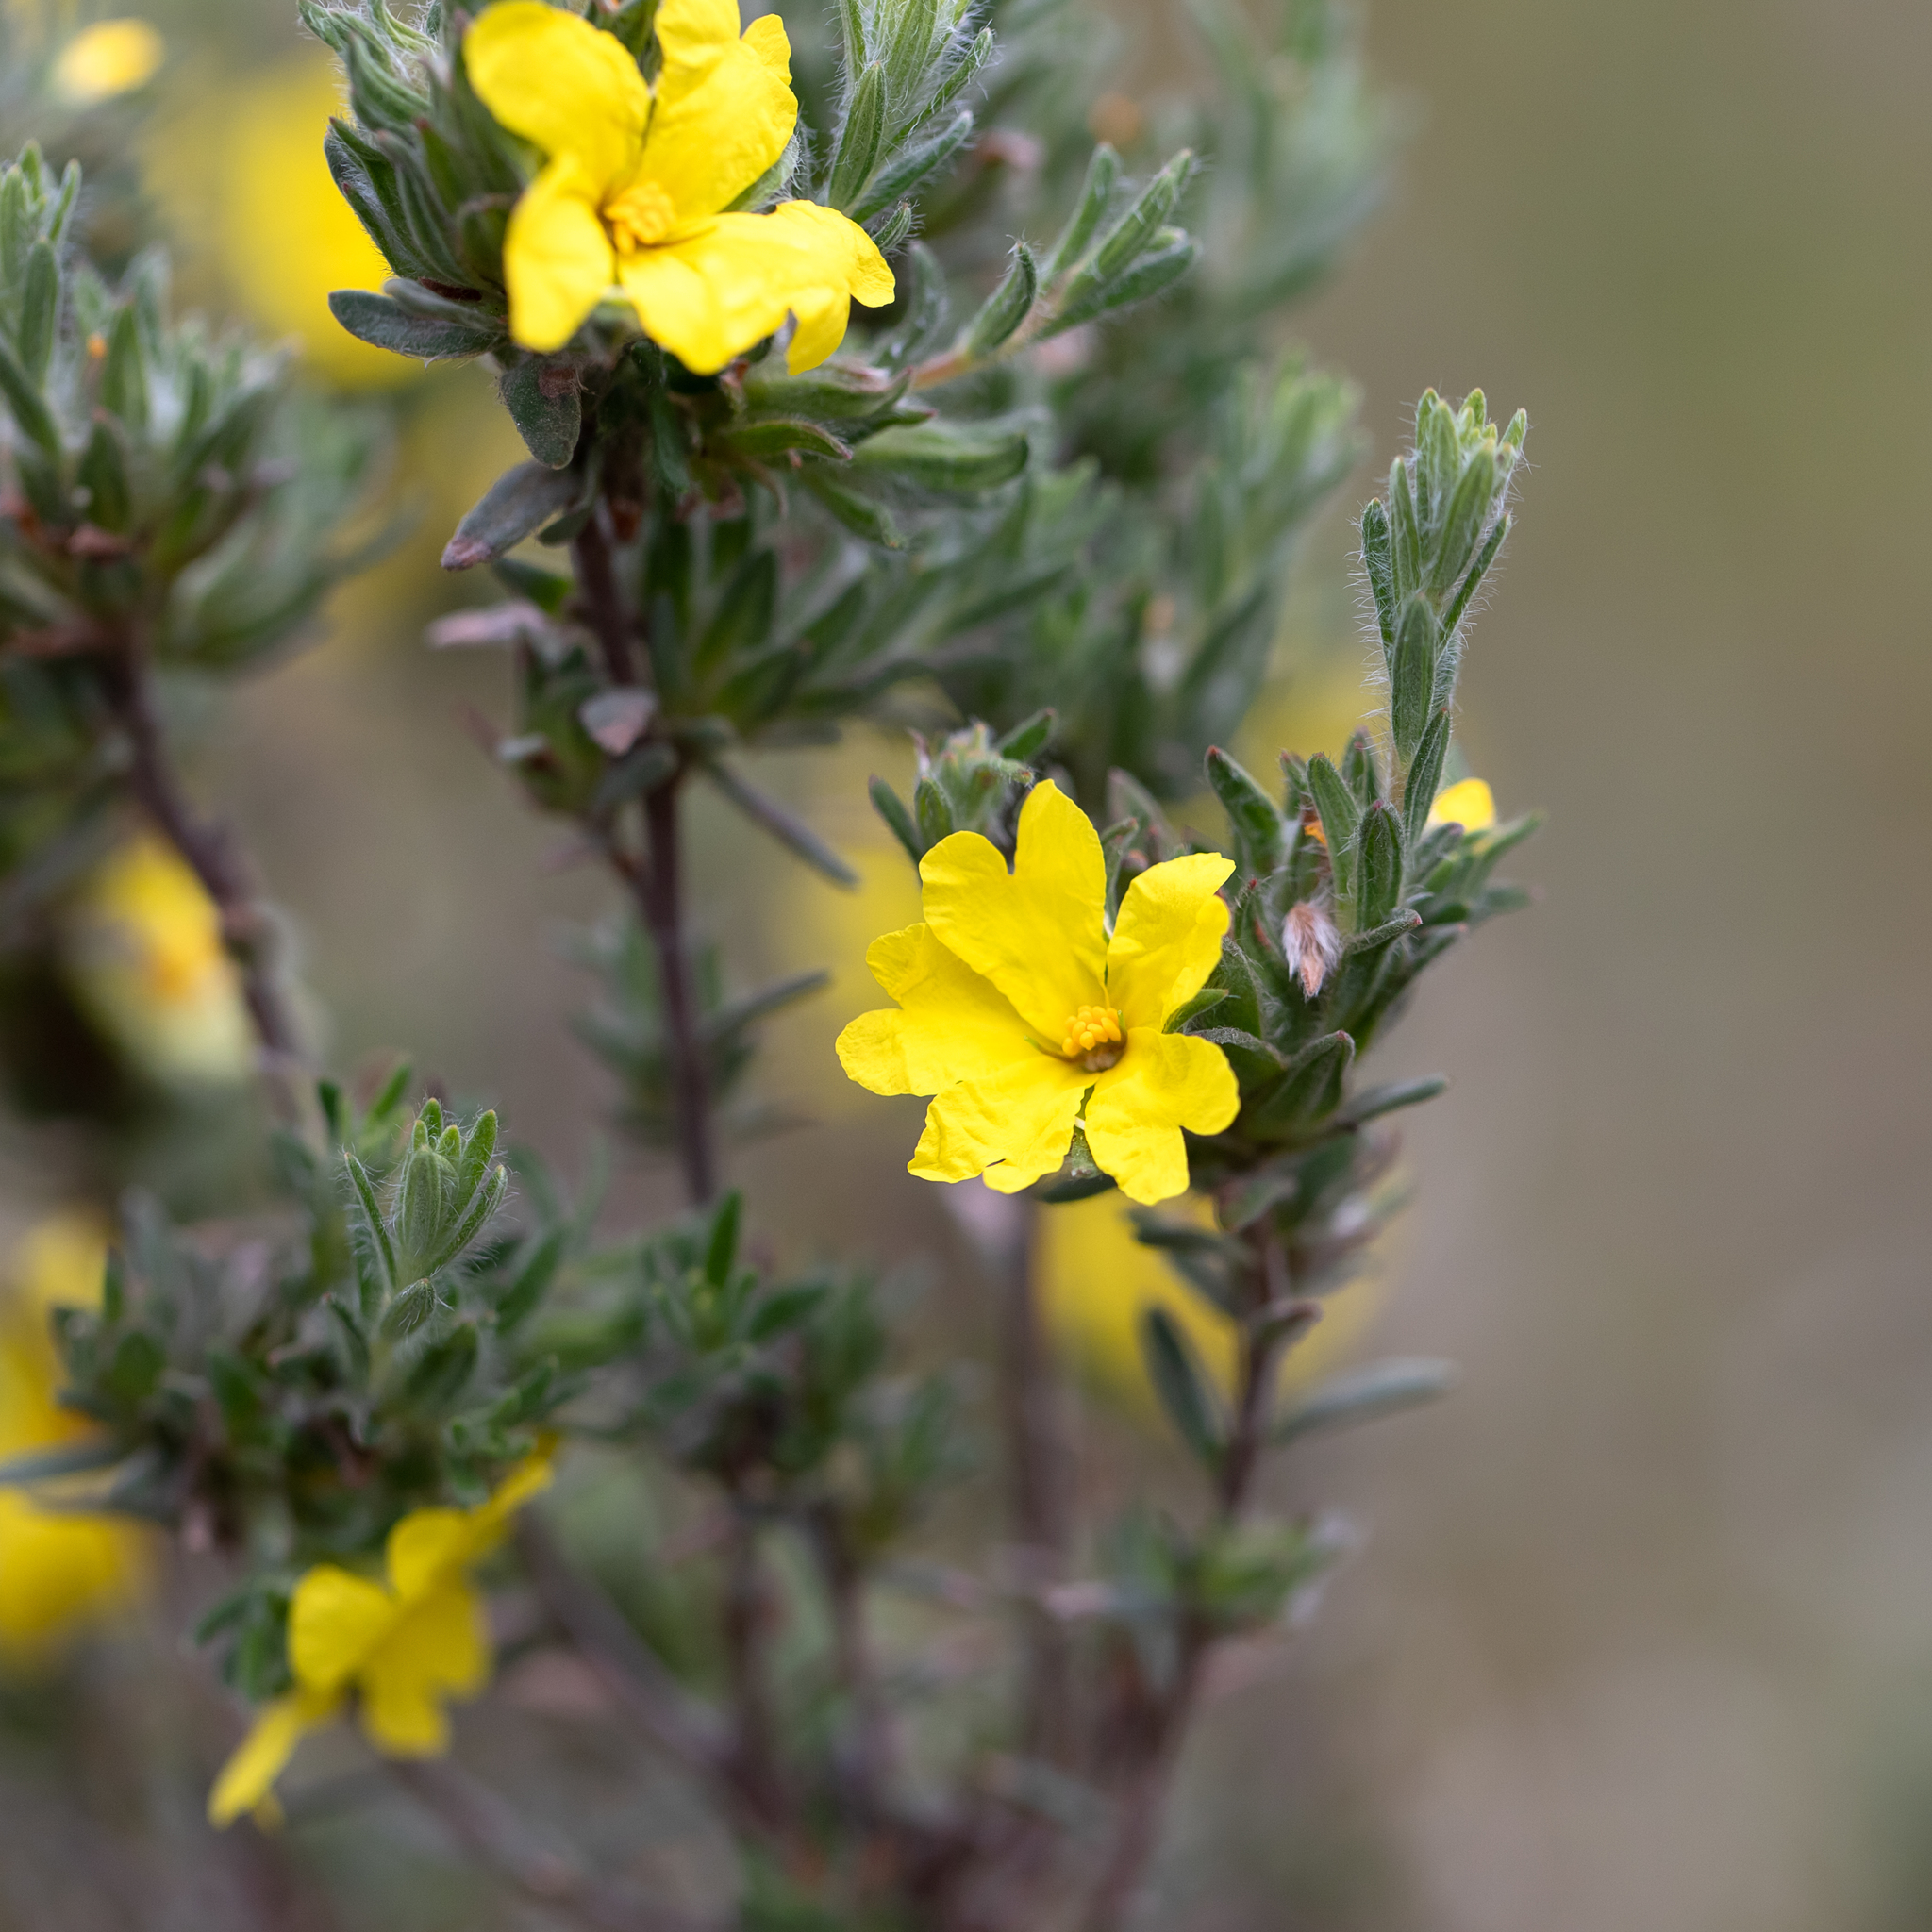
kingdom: Plantae
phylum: Tracheophyta
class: Magnoliopsida
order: Dilleniales
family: Dilleniaceae
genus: Hibbertia
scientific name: Hibbertia crinita
